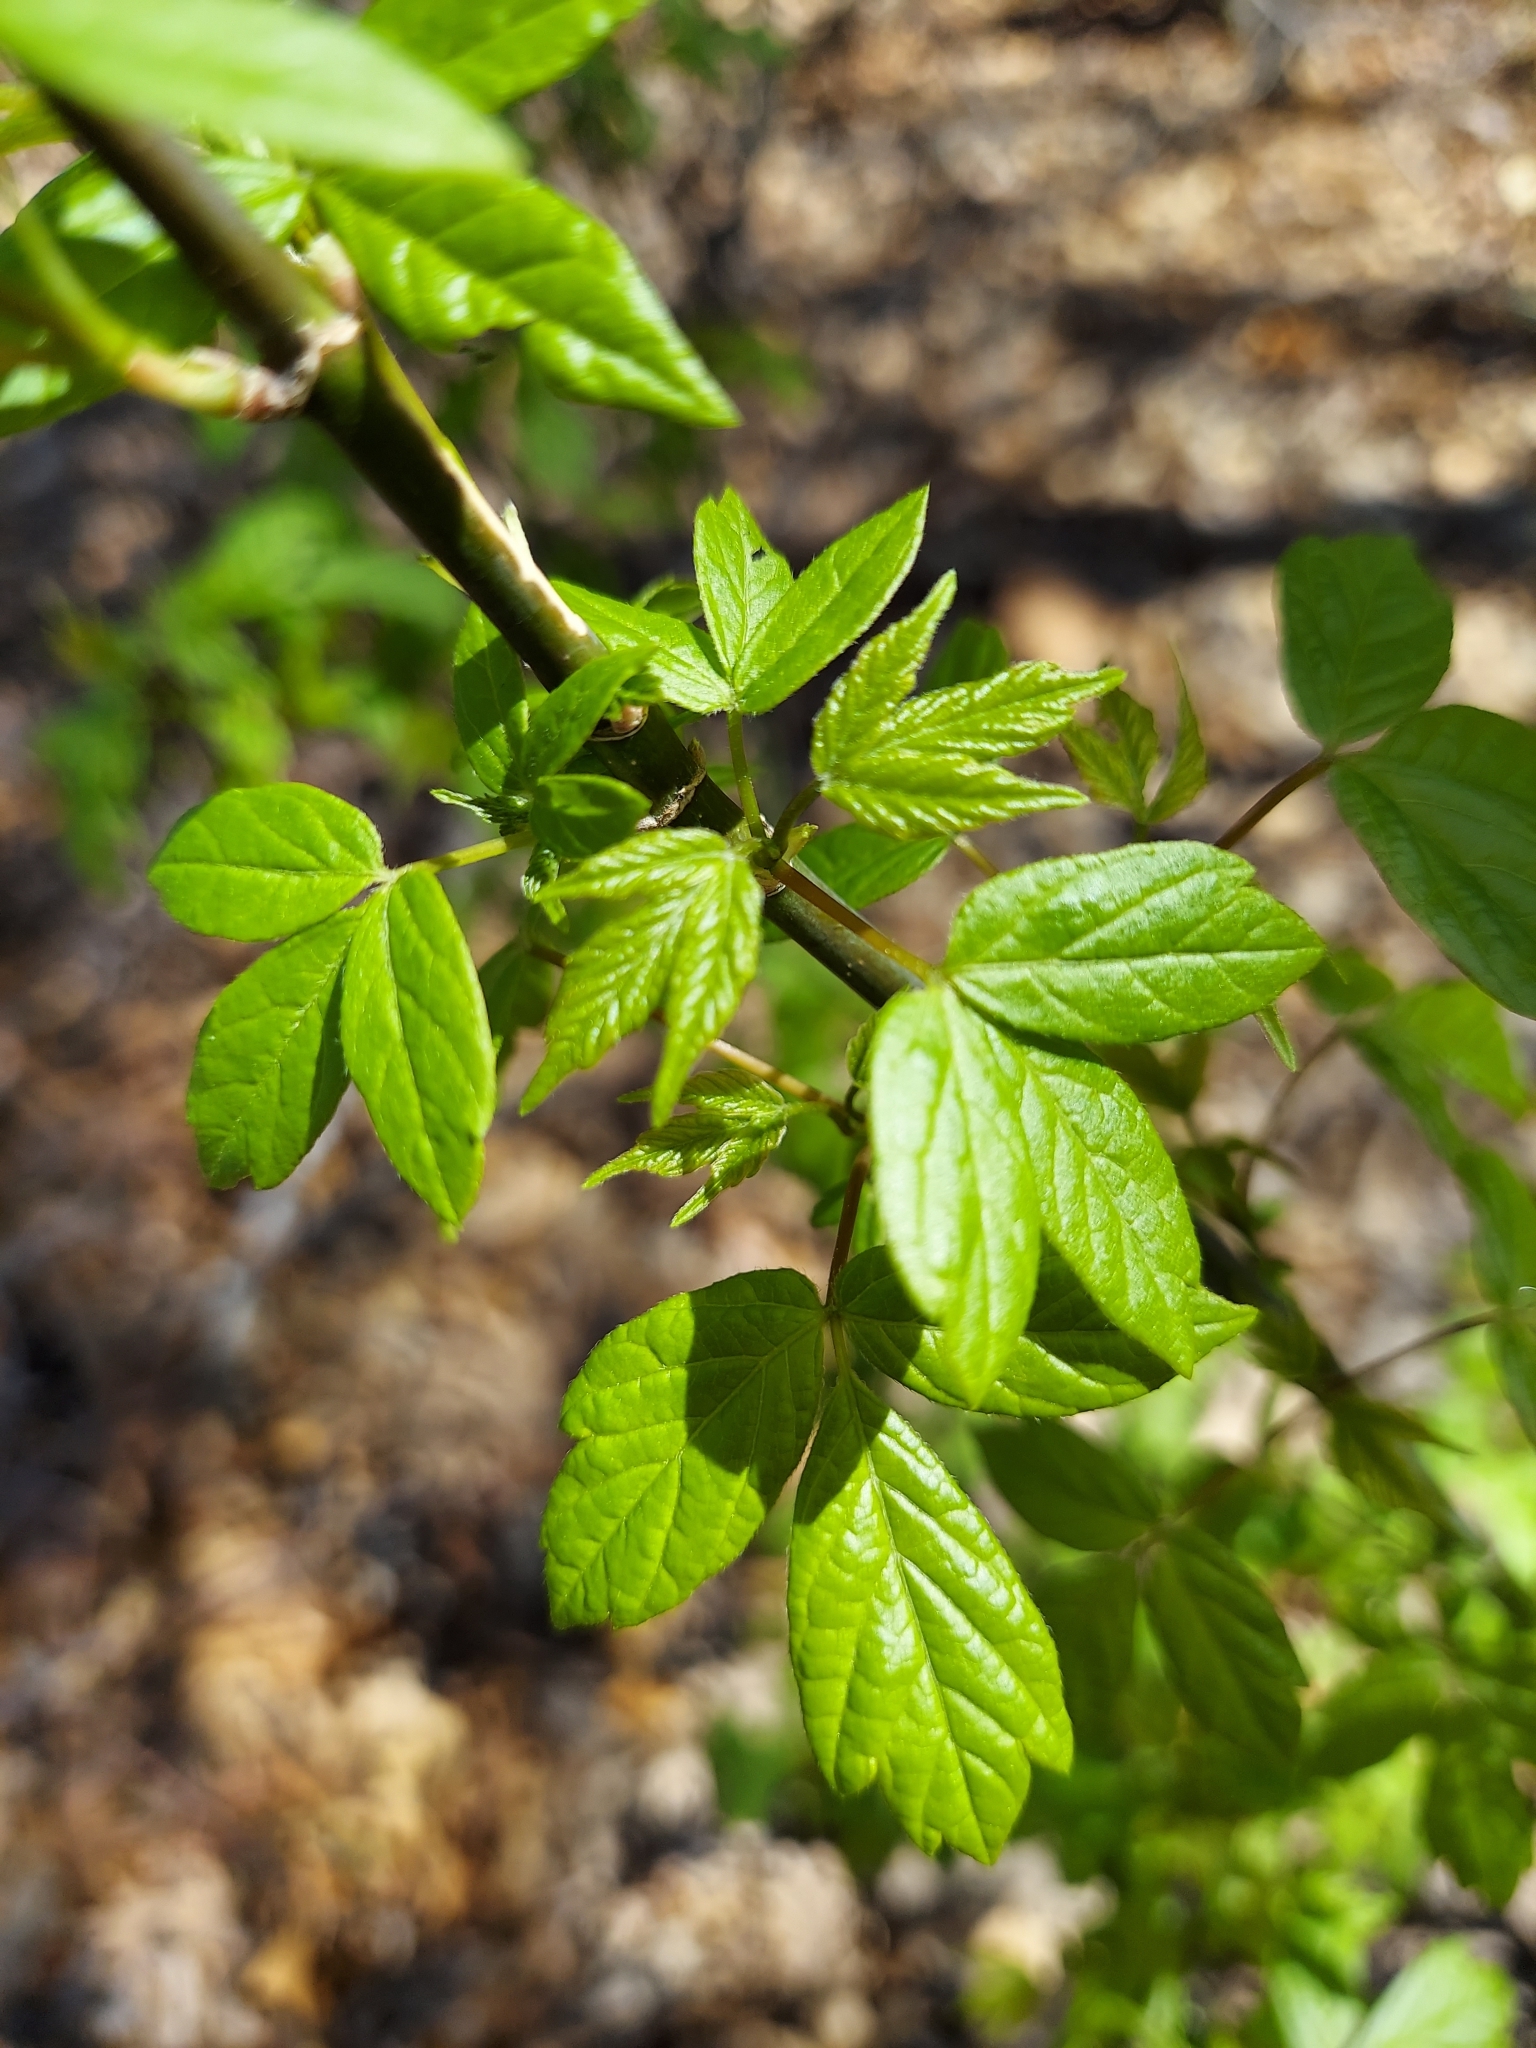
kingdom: Plantae
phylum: Tracheophyta
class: Magnoliopsida
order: Sapindales
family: Sapindaceae
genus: Acer
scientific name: Acer negundo
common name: Ashleaf maple
